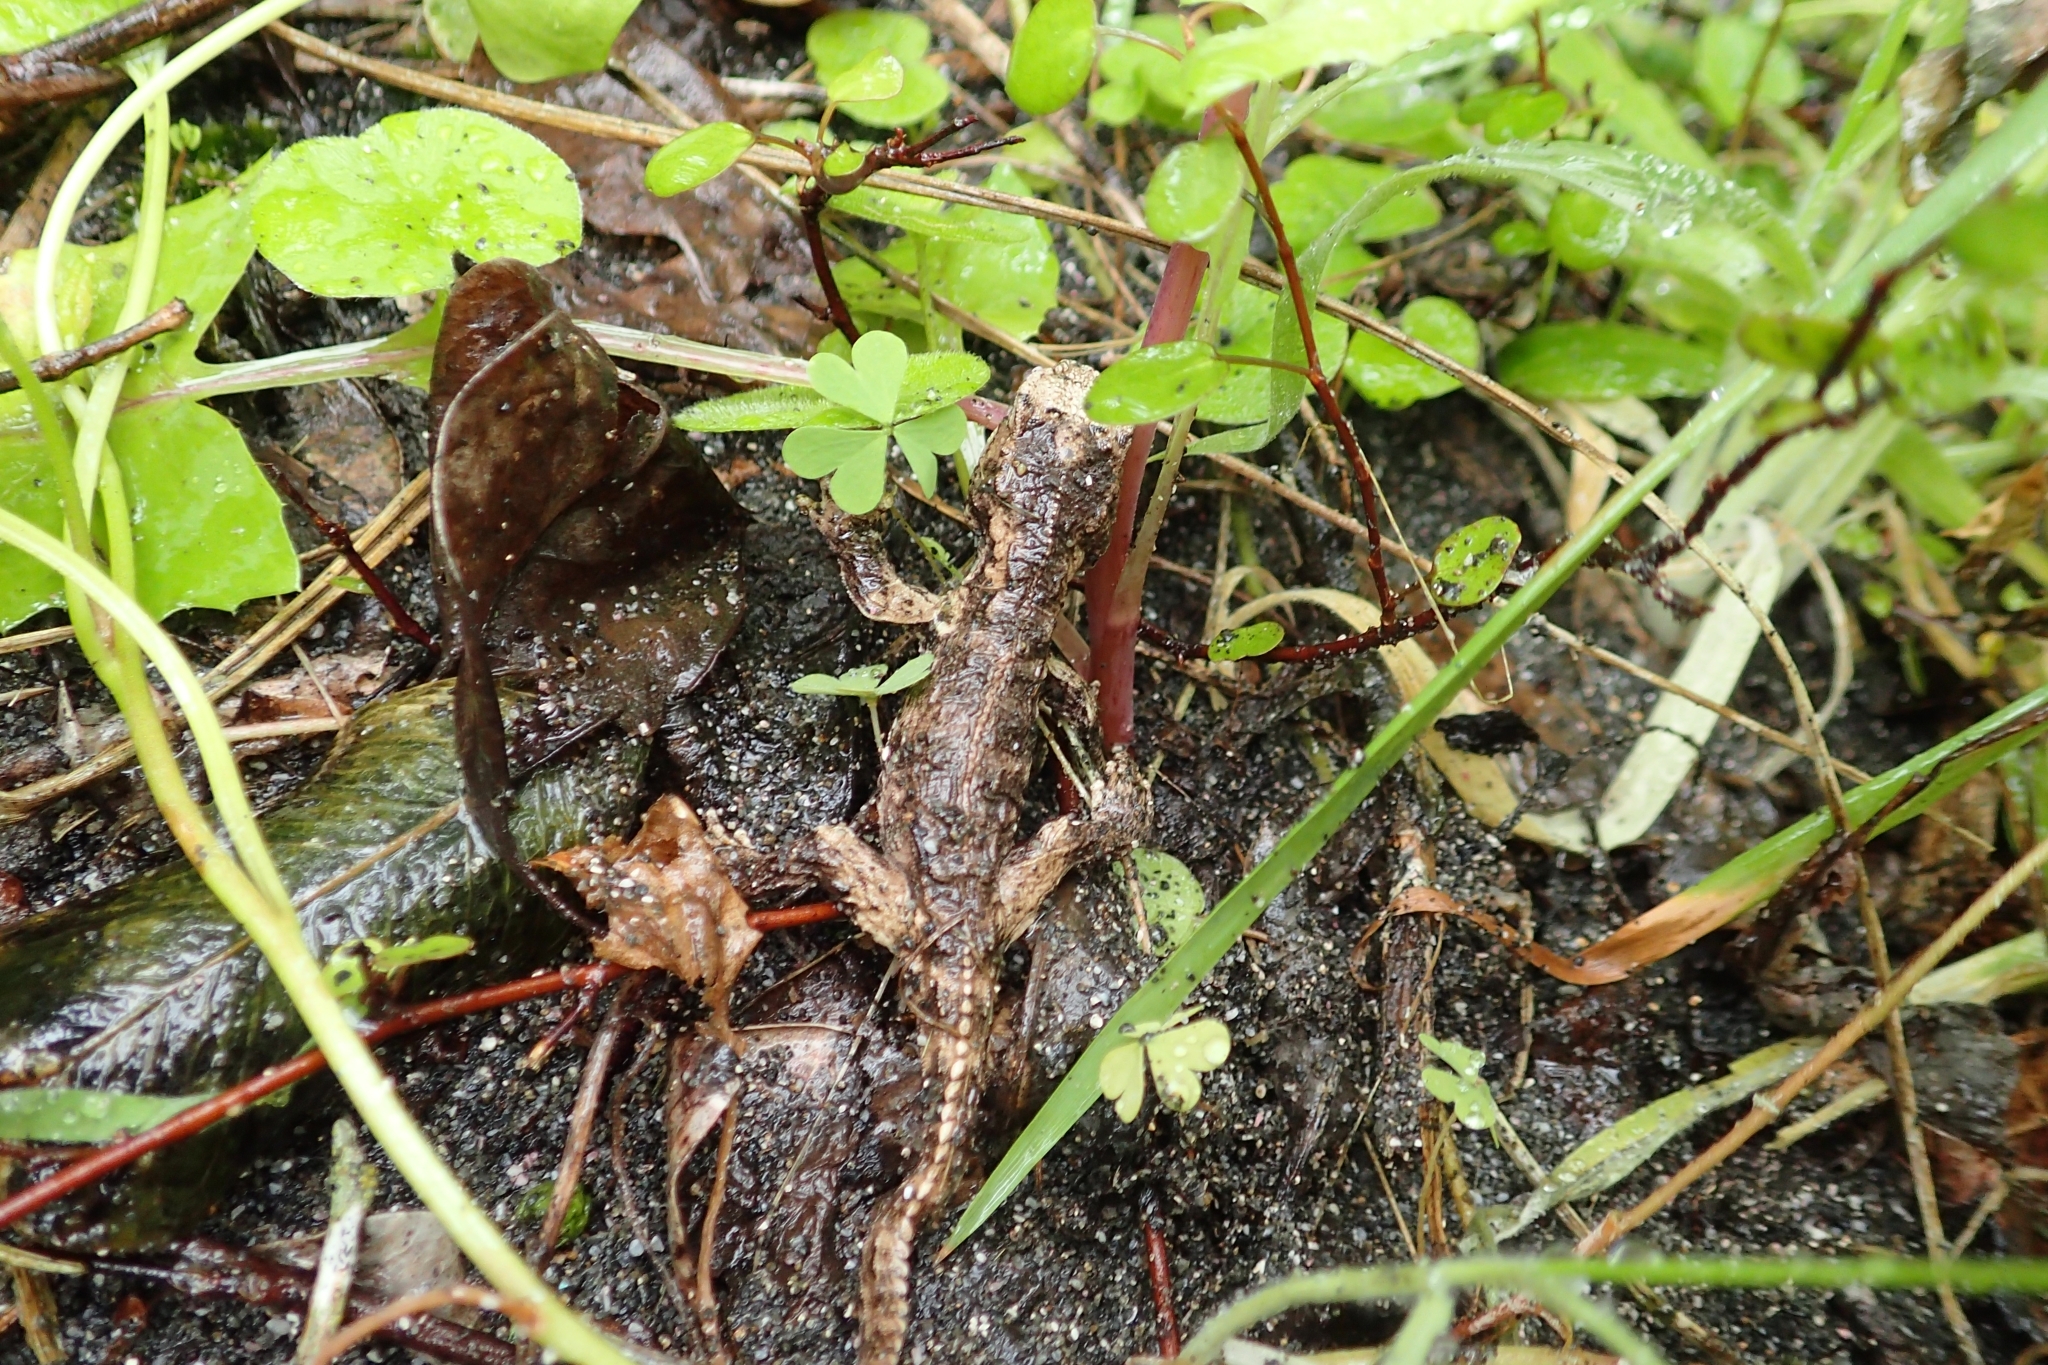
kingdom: Animalia
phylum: Chordata
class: Sphenodontia
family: Sphenodontidae
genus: Sphenodon
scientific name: Sphenodon punctatus
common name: Tuatara
